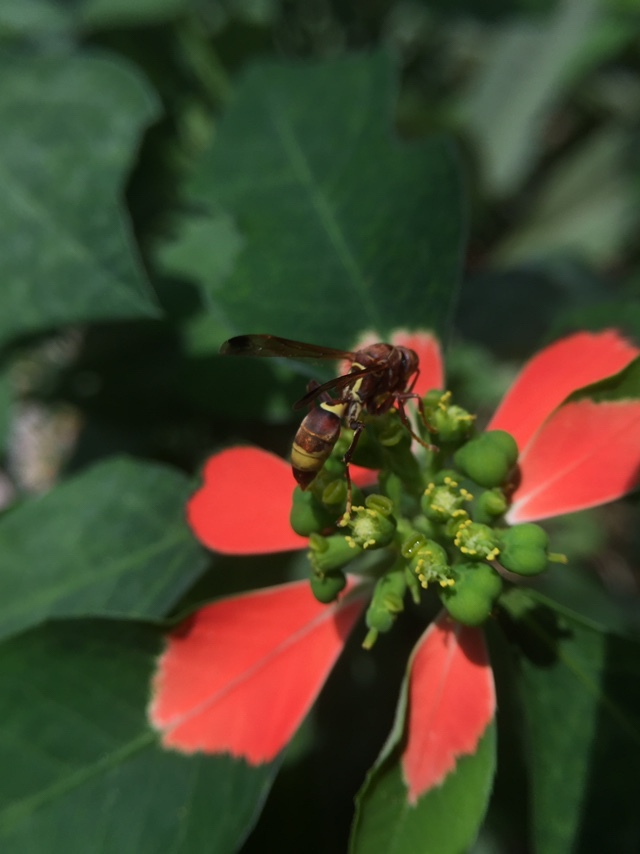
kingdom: Animalia
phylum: Arthropoda
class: Insecta
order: Hymenoptera
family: Eumenidae
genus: Polistes
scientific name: Polistes stigma
